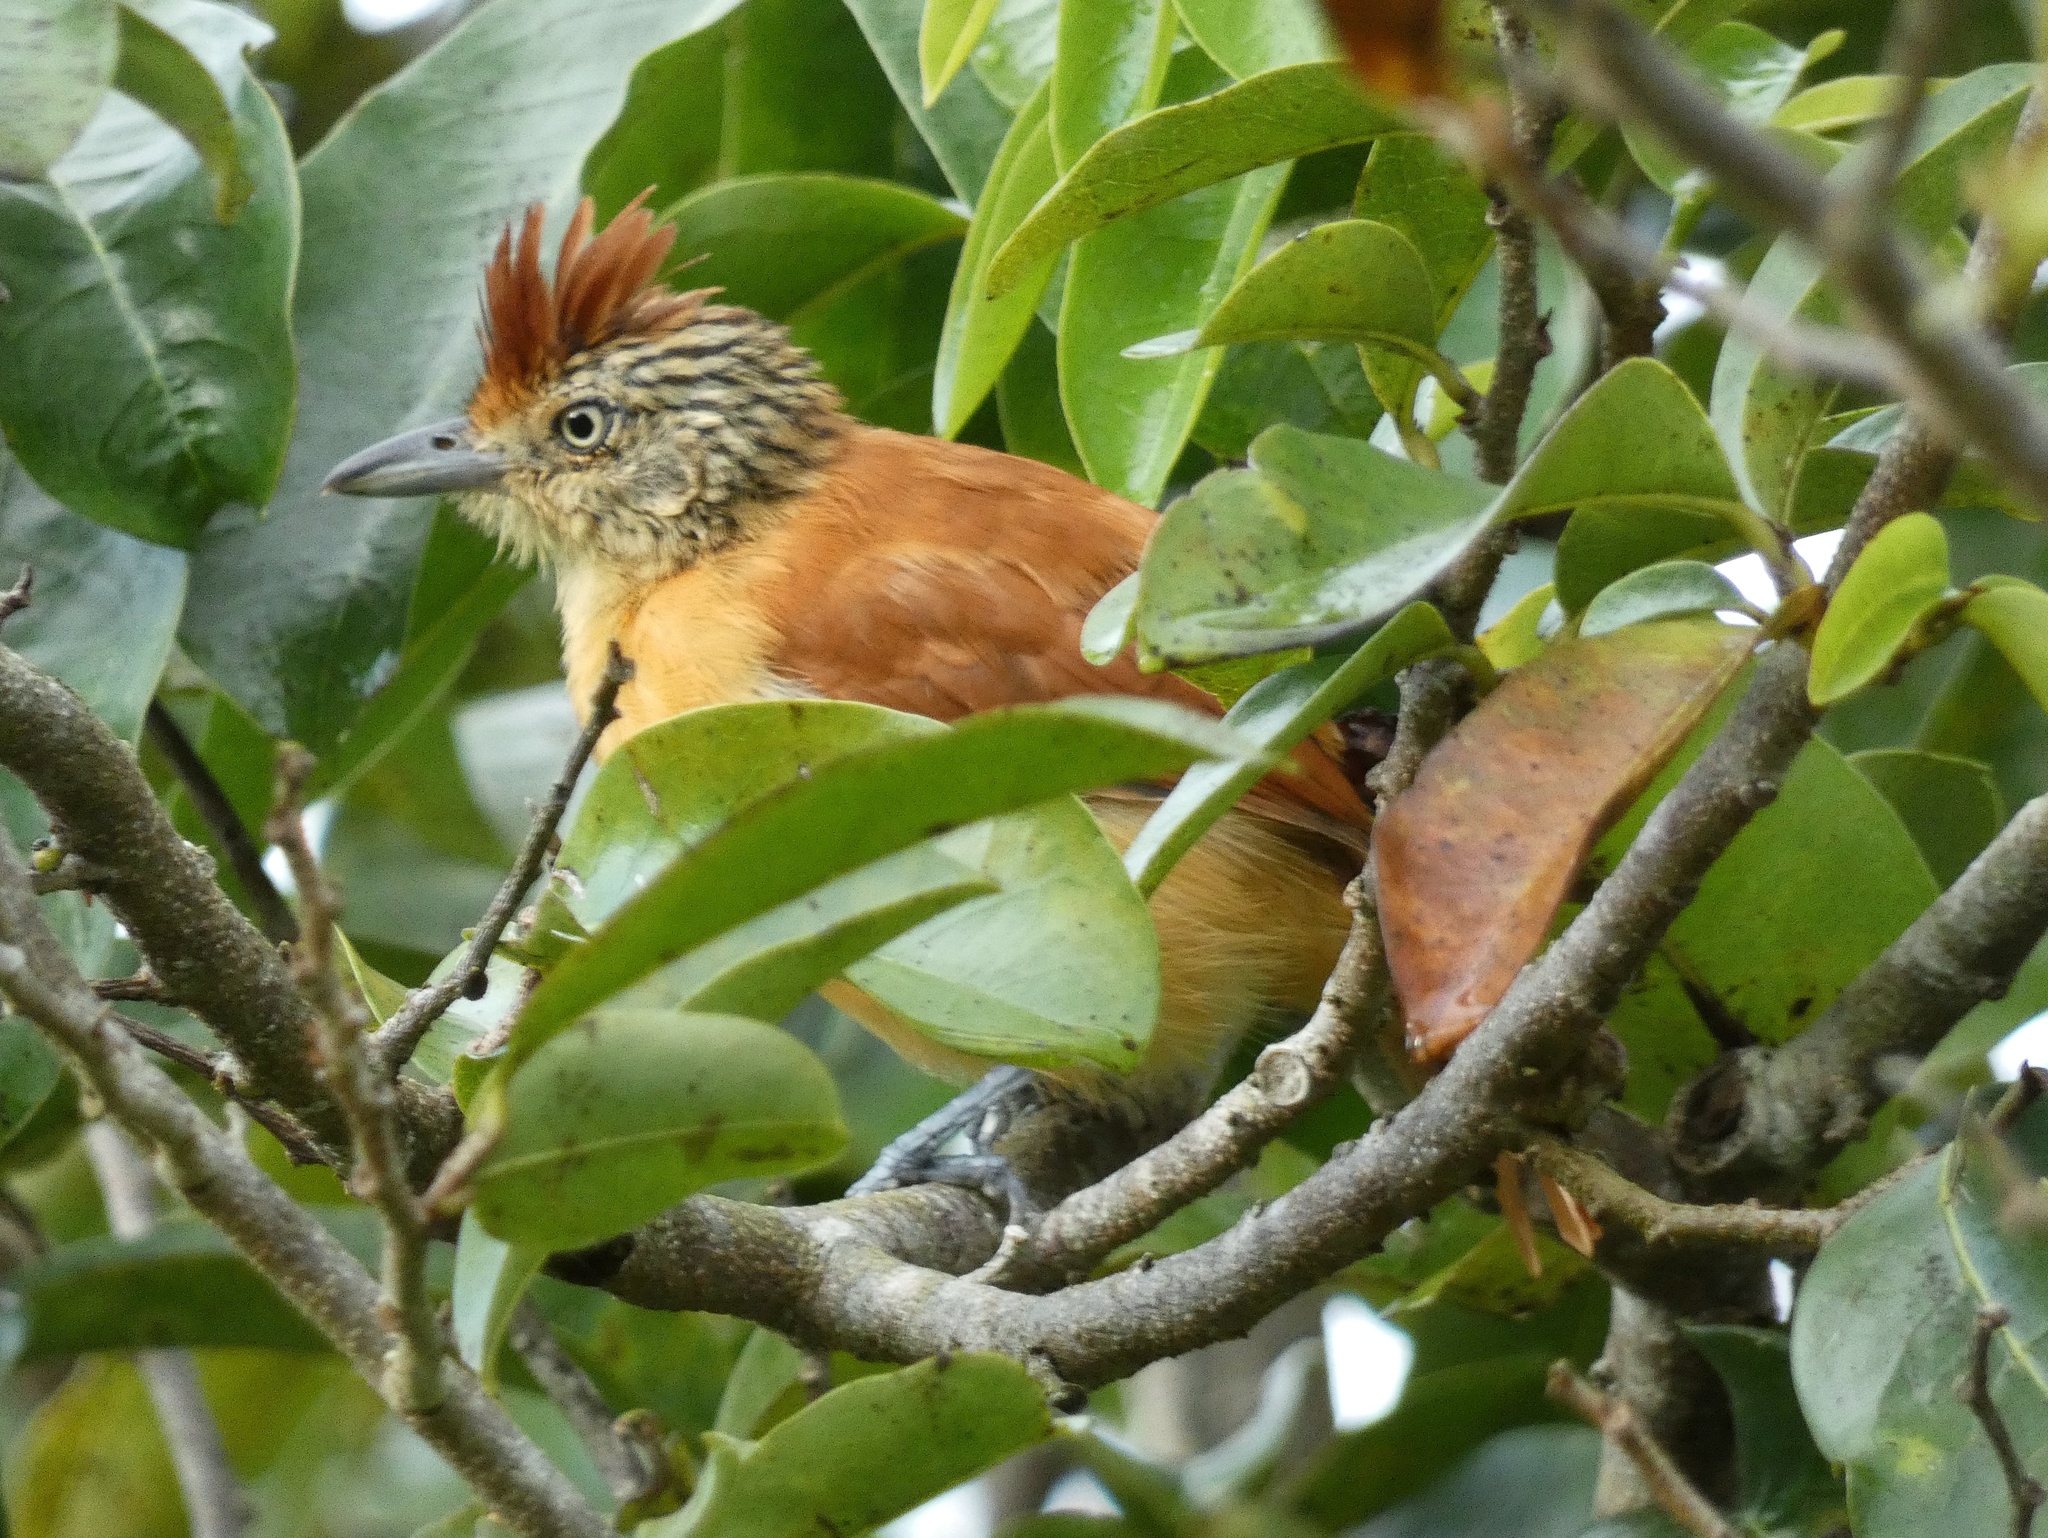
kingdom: Animalia
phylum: Chordata
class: Aves
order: Passeriformes
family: Thamnophilidae
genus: Thamnophilus
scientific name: Thamnophilus doliatus
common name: Barred antshrike
